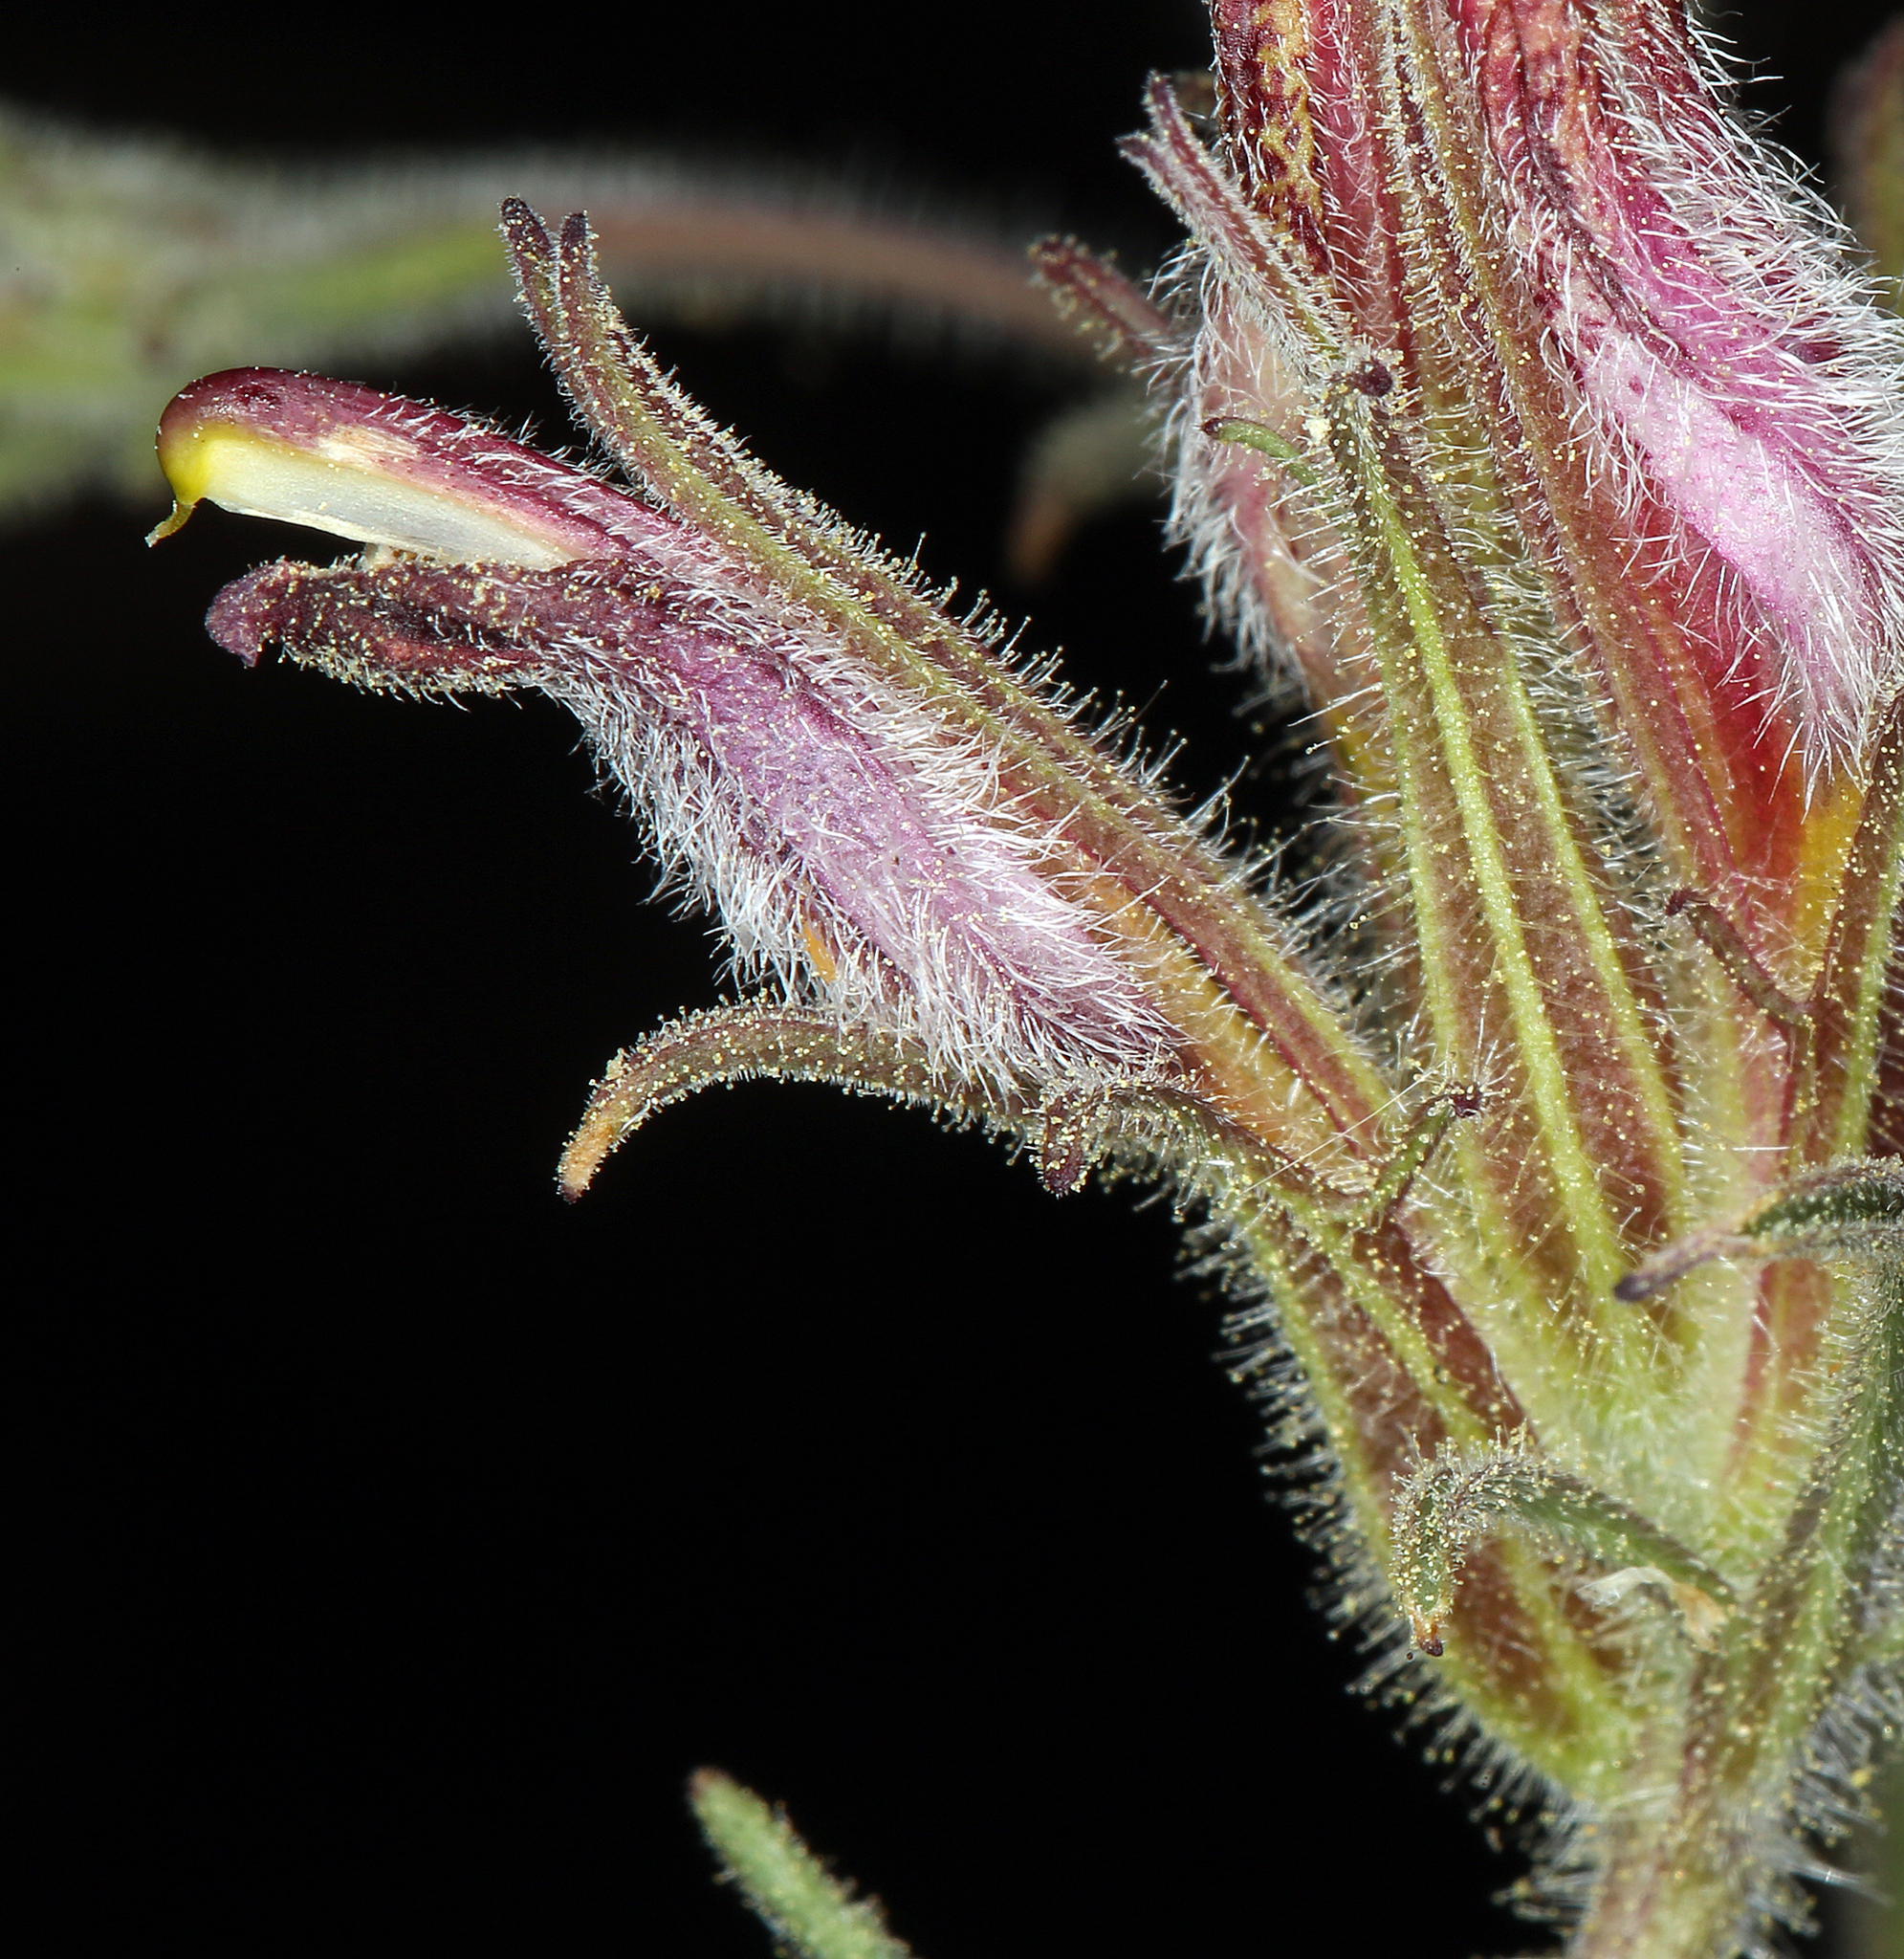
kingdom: Plantae
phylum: Tracheophyta
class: Magnoliopsida
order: Lamiales
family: Orobanchaceae
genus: Cordylanthus
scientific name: Cordylanthus kingii
